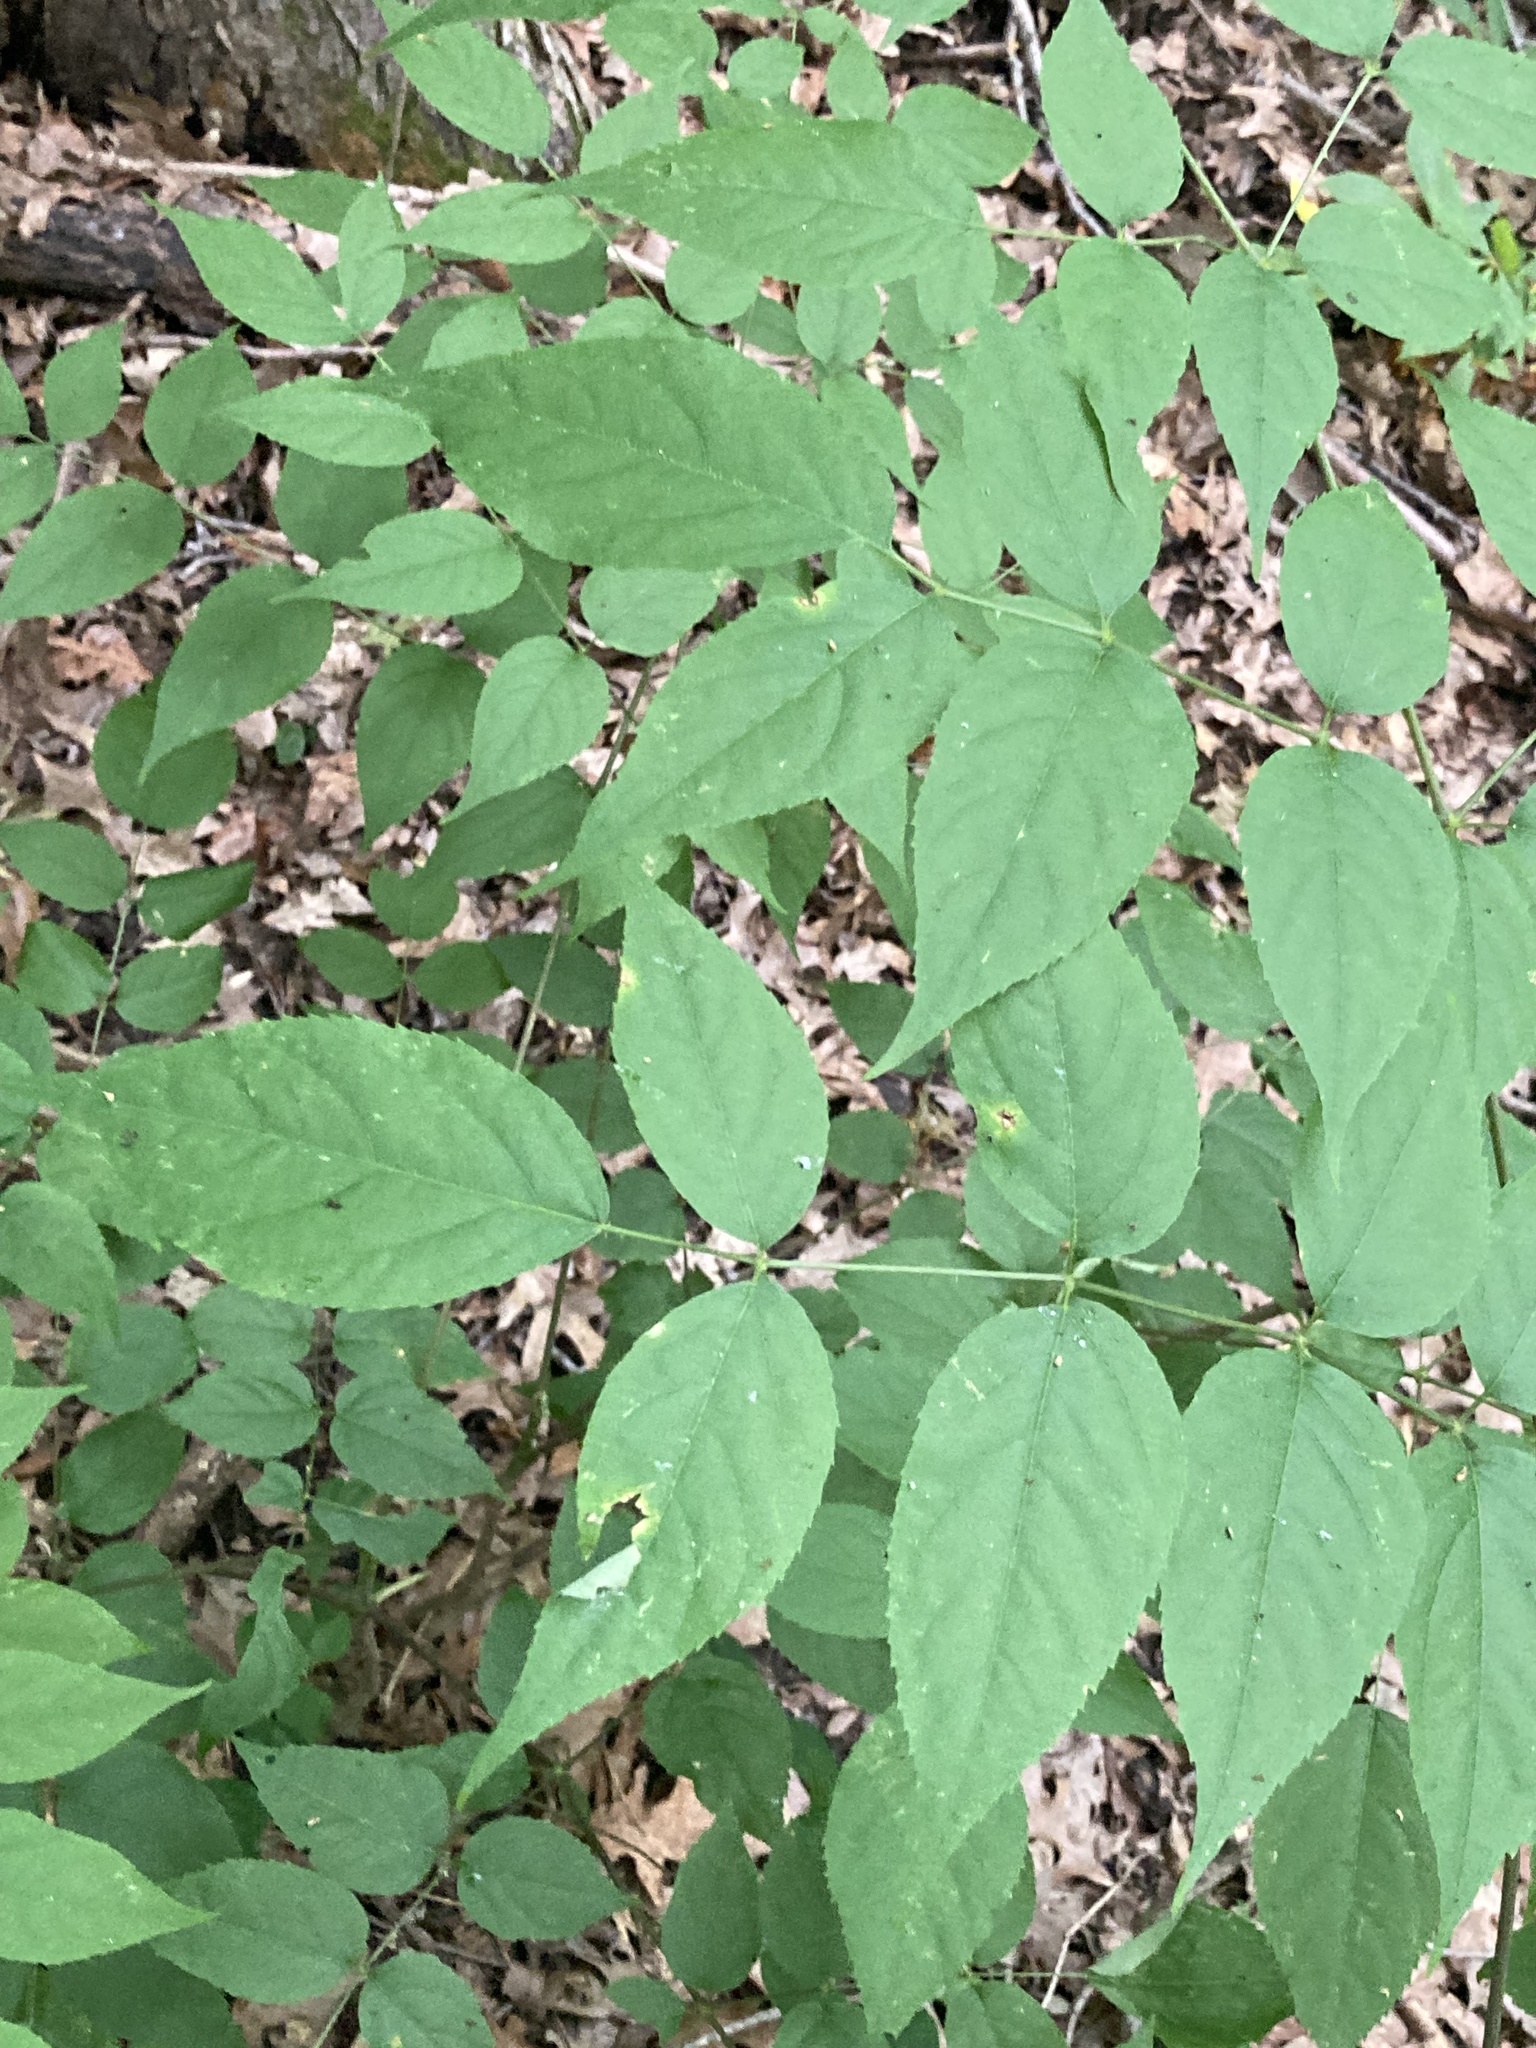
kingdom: Plantae
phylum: Tracheophyta
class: Magnoliopsida
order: Apiales
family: Araliaceae
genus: Aralia
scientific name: Aralia spinosa
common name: Hercules'-club
